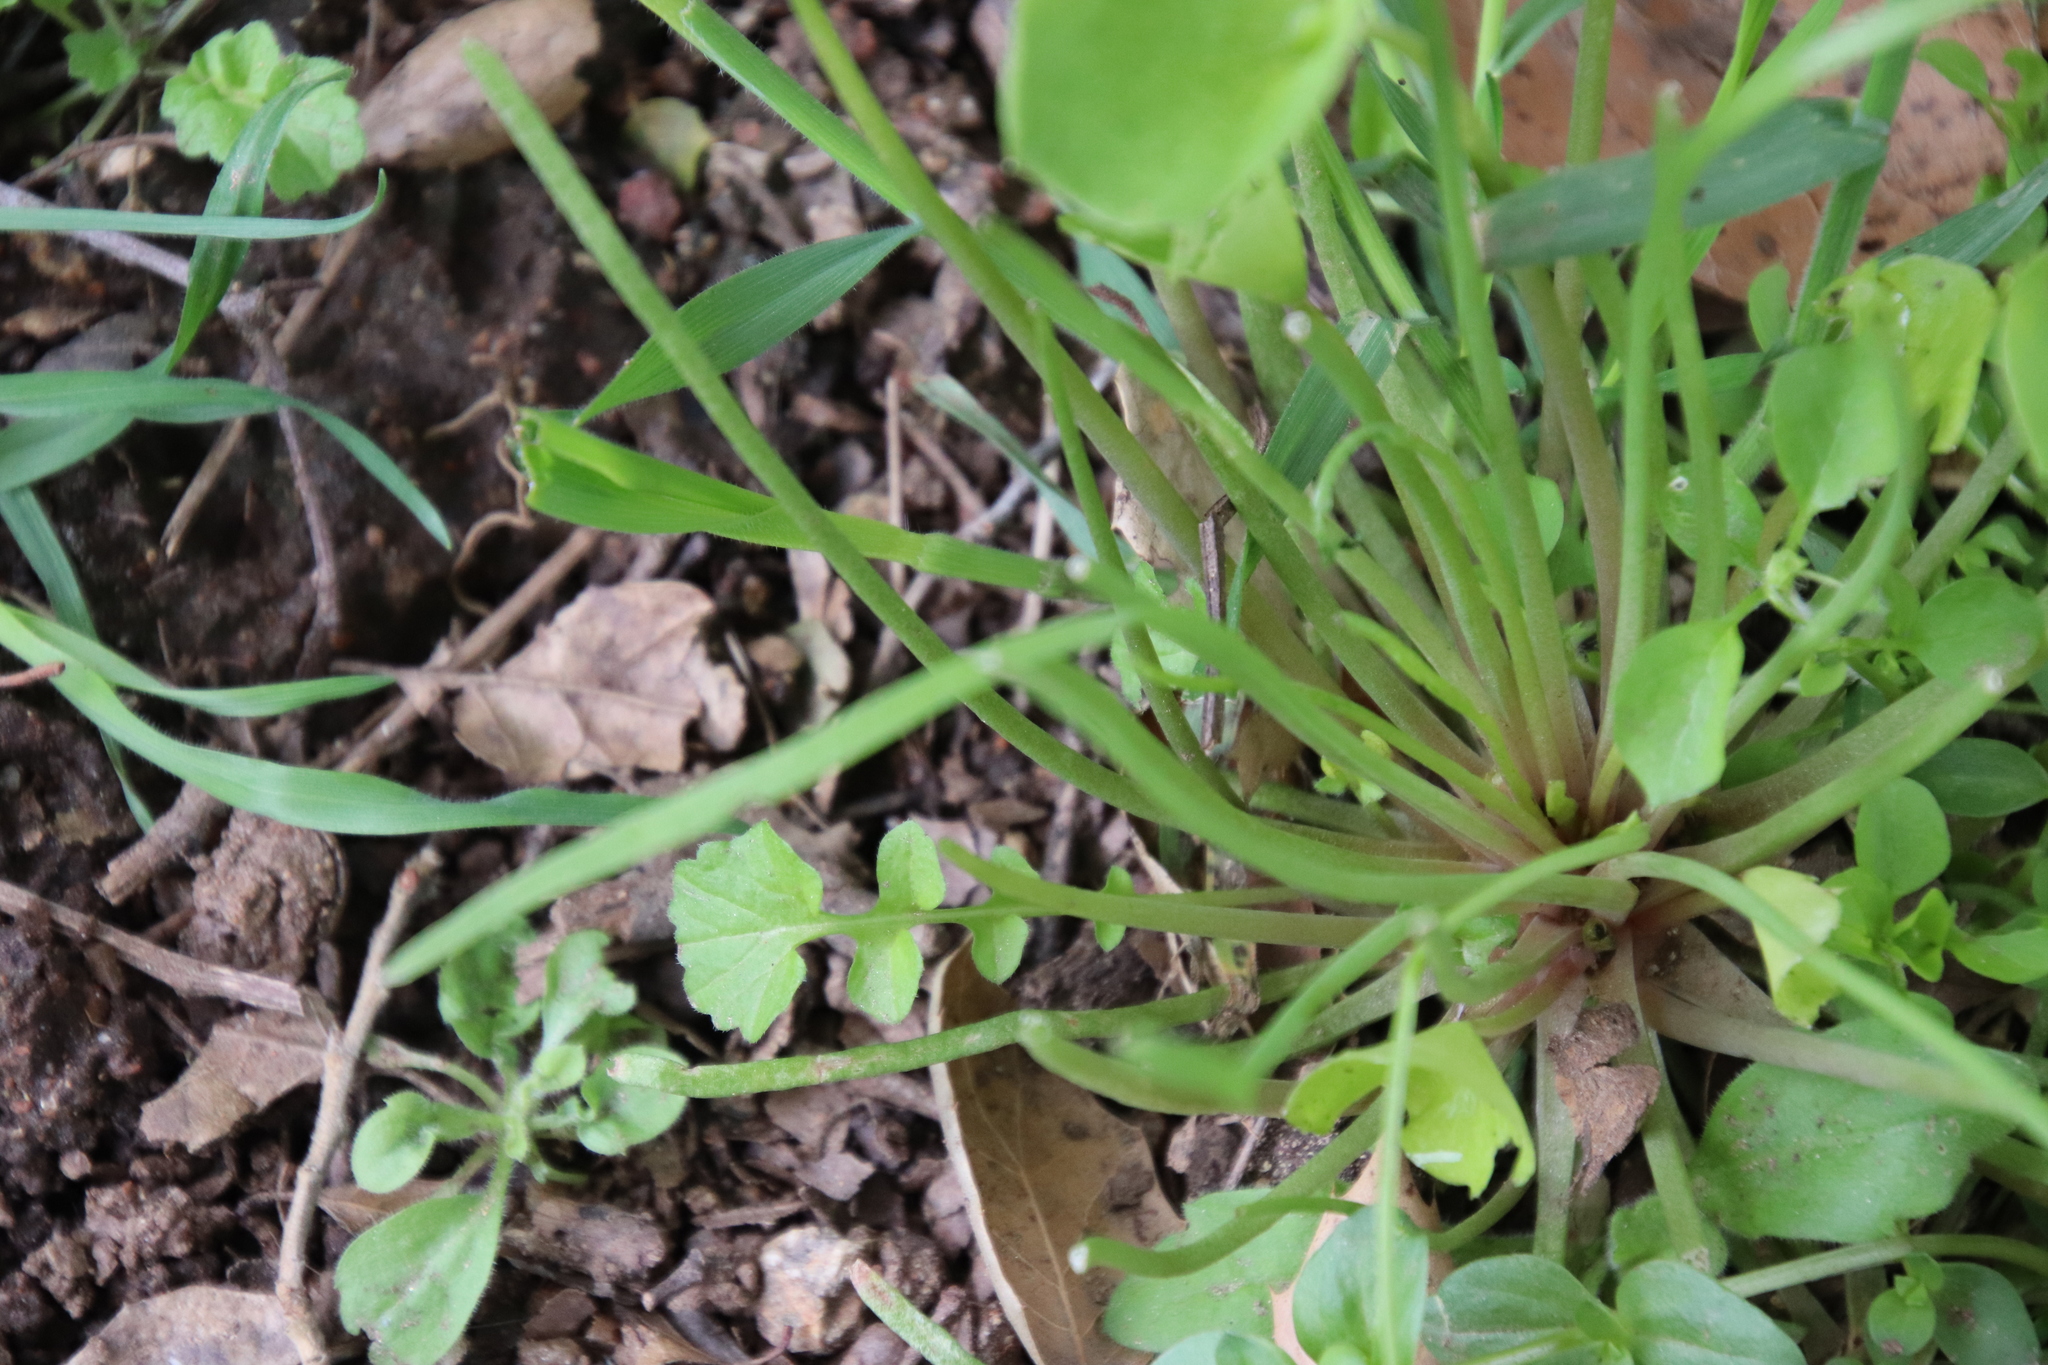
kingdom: Plantae
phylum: Tracheophyta
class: Magnoliopsida
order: Caryophyllales
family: Montiaceae
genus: Claytonia
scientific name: Claytonia parviflora
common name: Indian-lettuce
